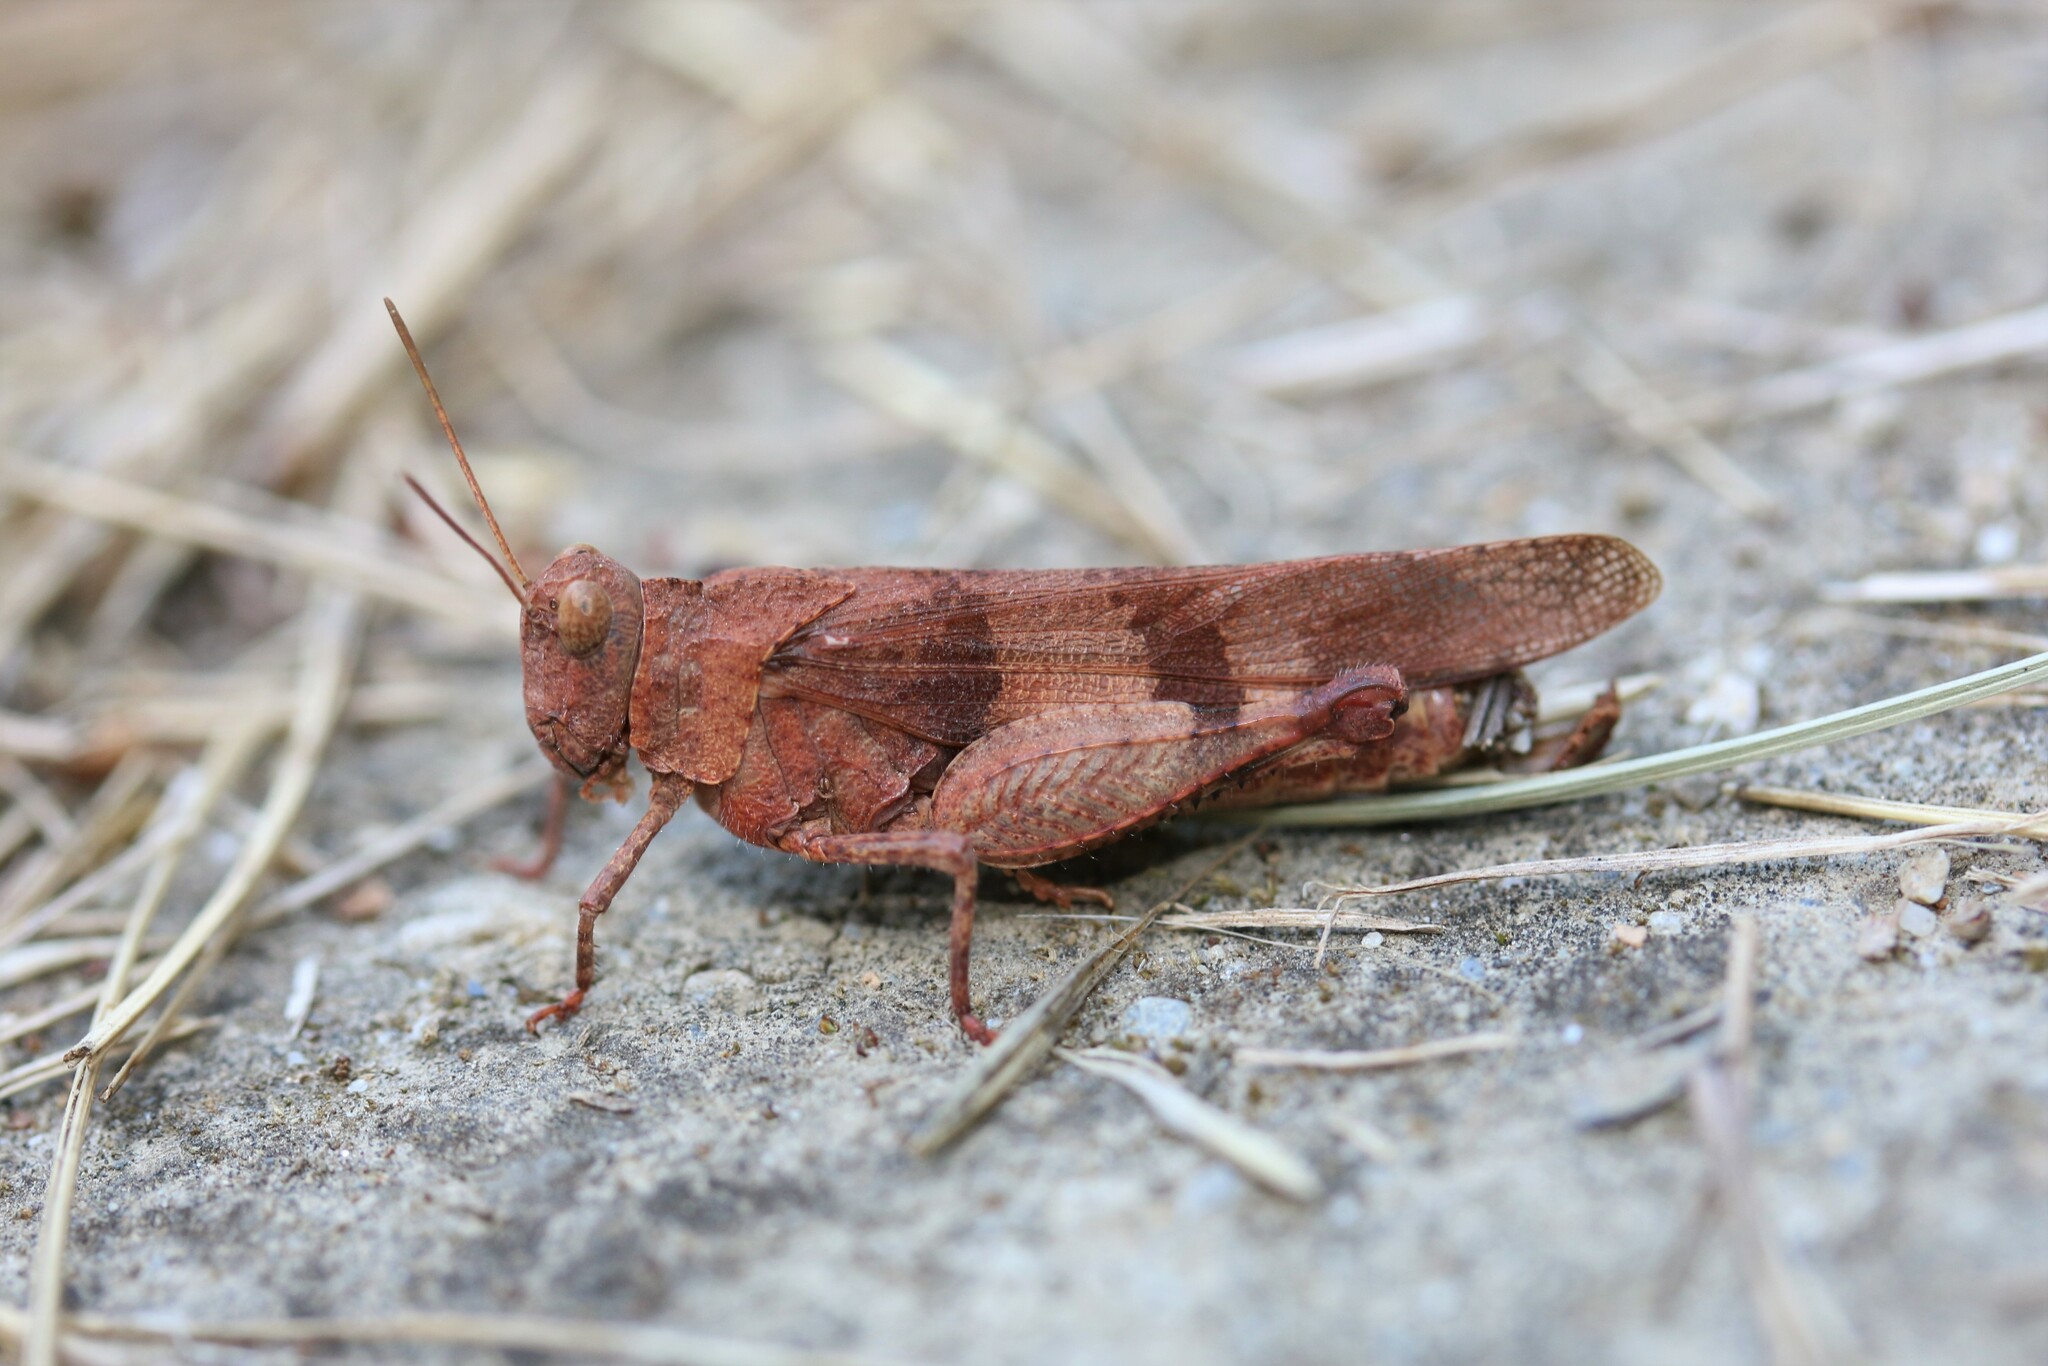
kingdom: Animalia
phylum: Arthropoda
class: Insecta
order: Orthoptera
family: Acrididae
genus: Oedipoda
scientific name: Oedipoda caerulescens
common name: Blue-winged grasshopper
